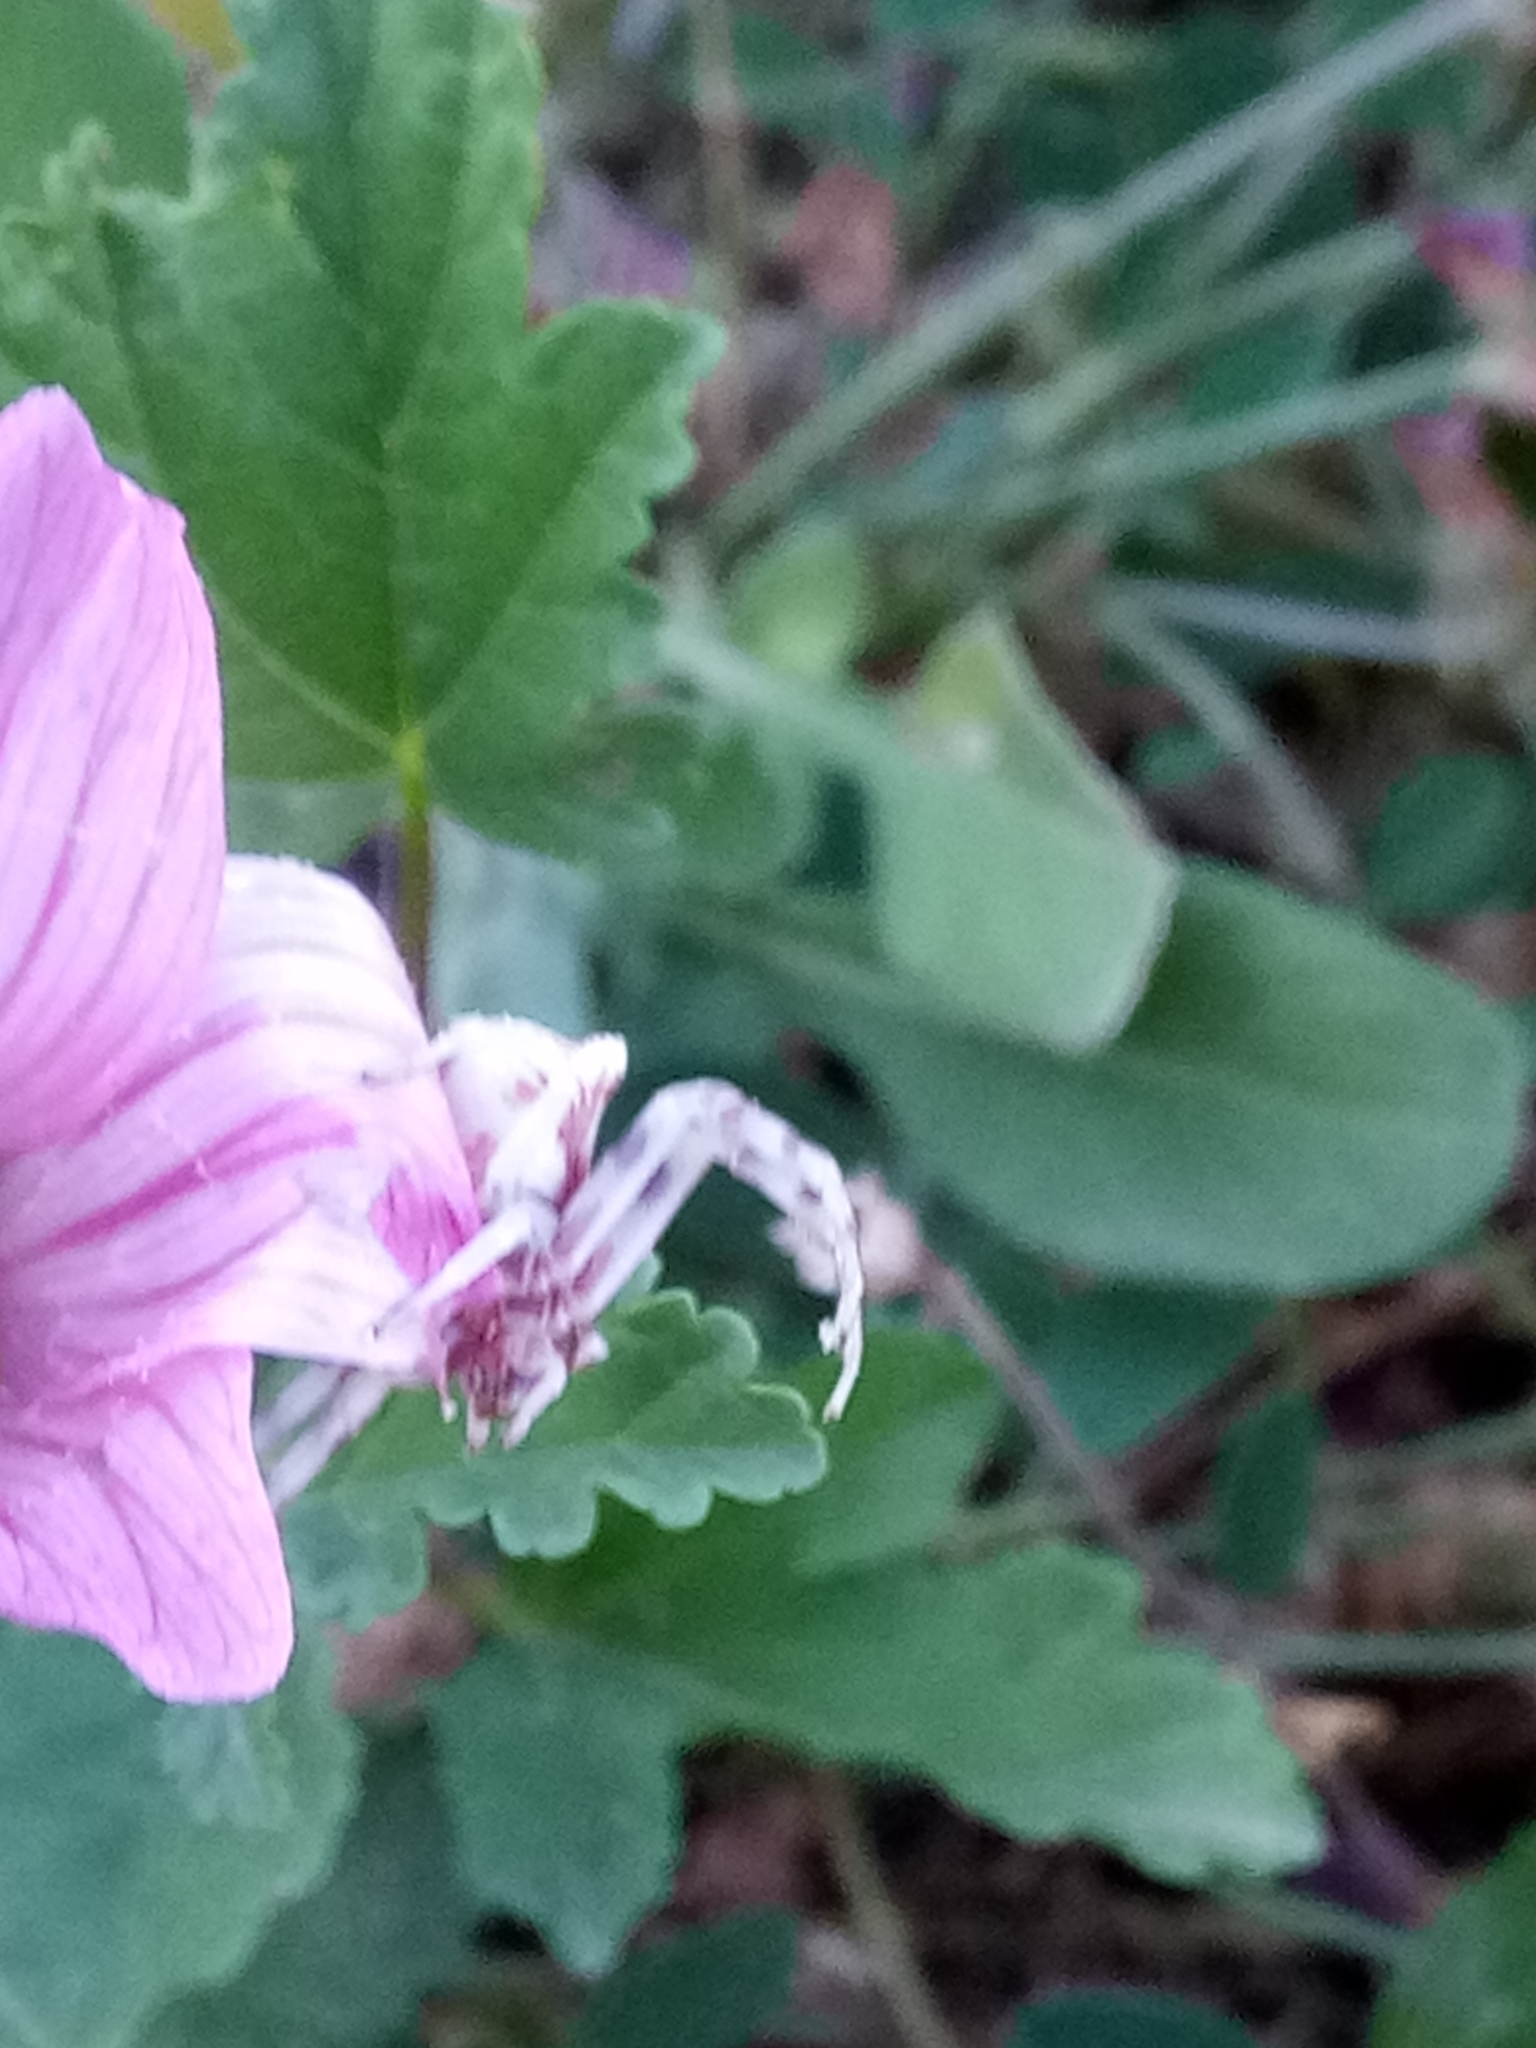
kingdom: Animalia
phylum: Arthropoda
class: Arachnida
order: Araneae
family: Thomisidae
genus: Thomisus
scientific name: Thomisus onustus
